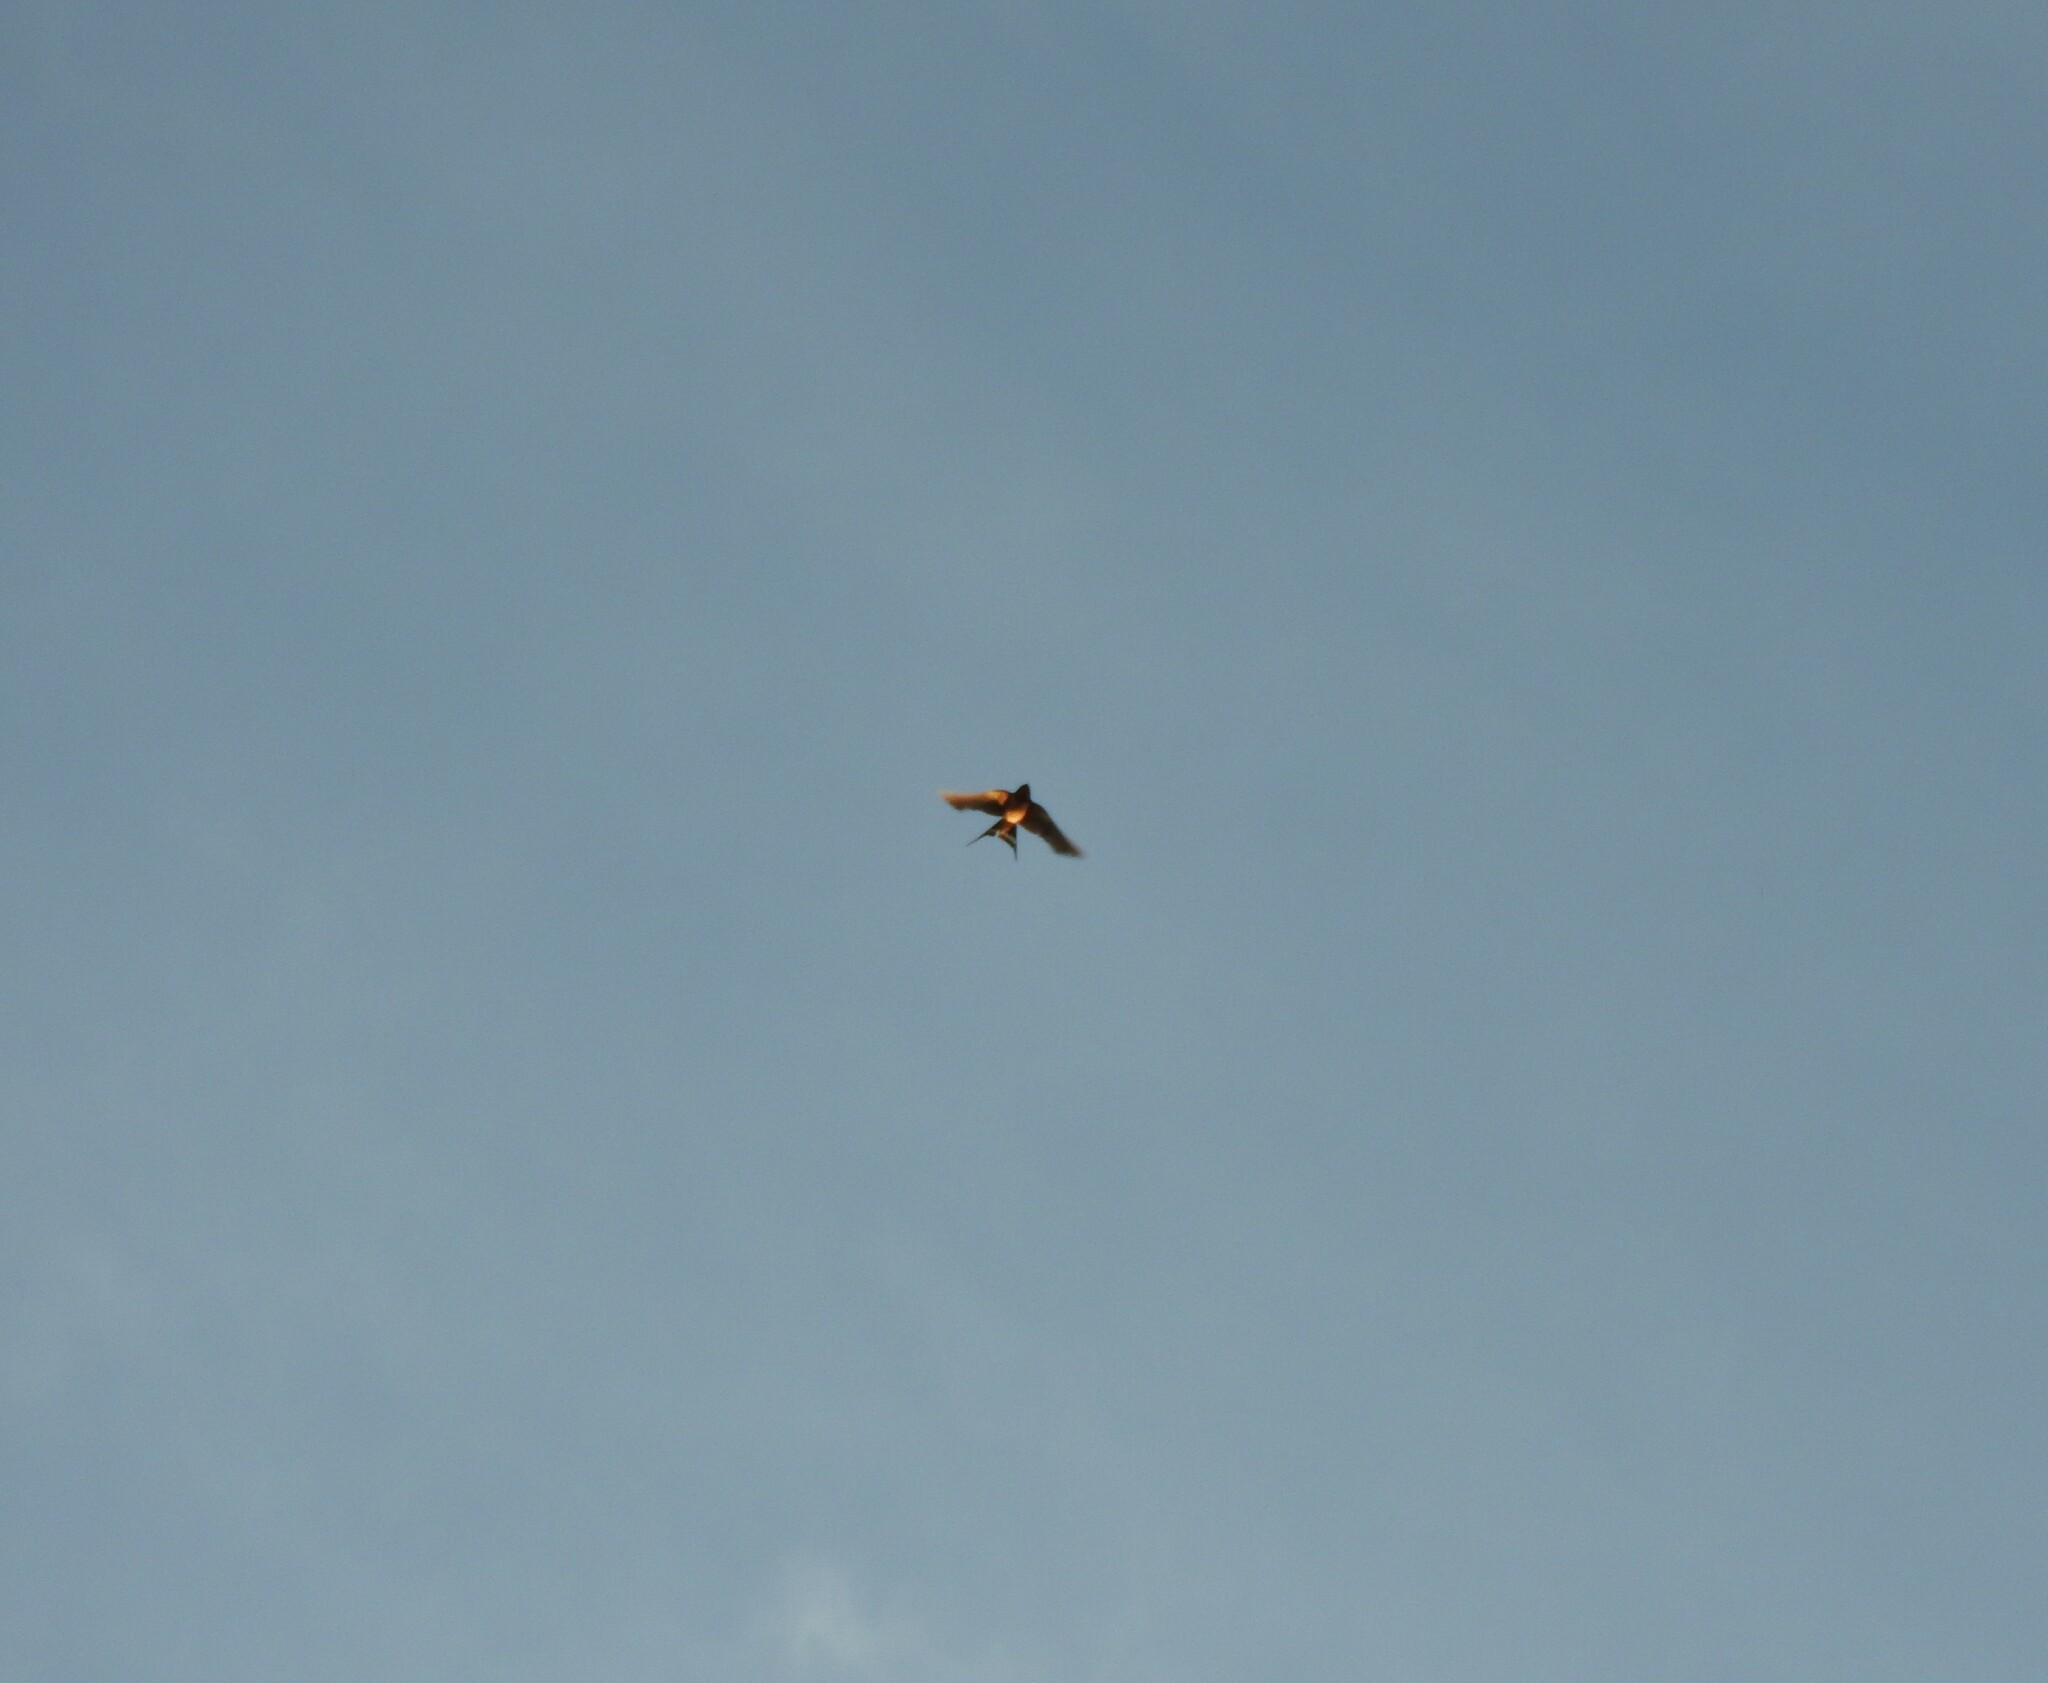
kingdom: Animalia
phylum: Chordata
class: Aves
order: Passeriformes
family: Hirundinidae
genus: Hirundo
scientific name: Hirundo rustica
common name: Barn swallow
